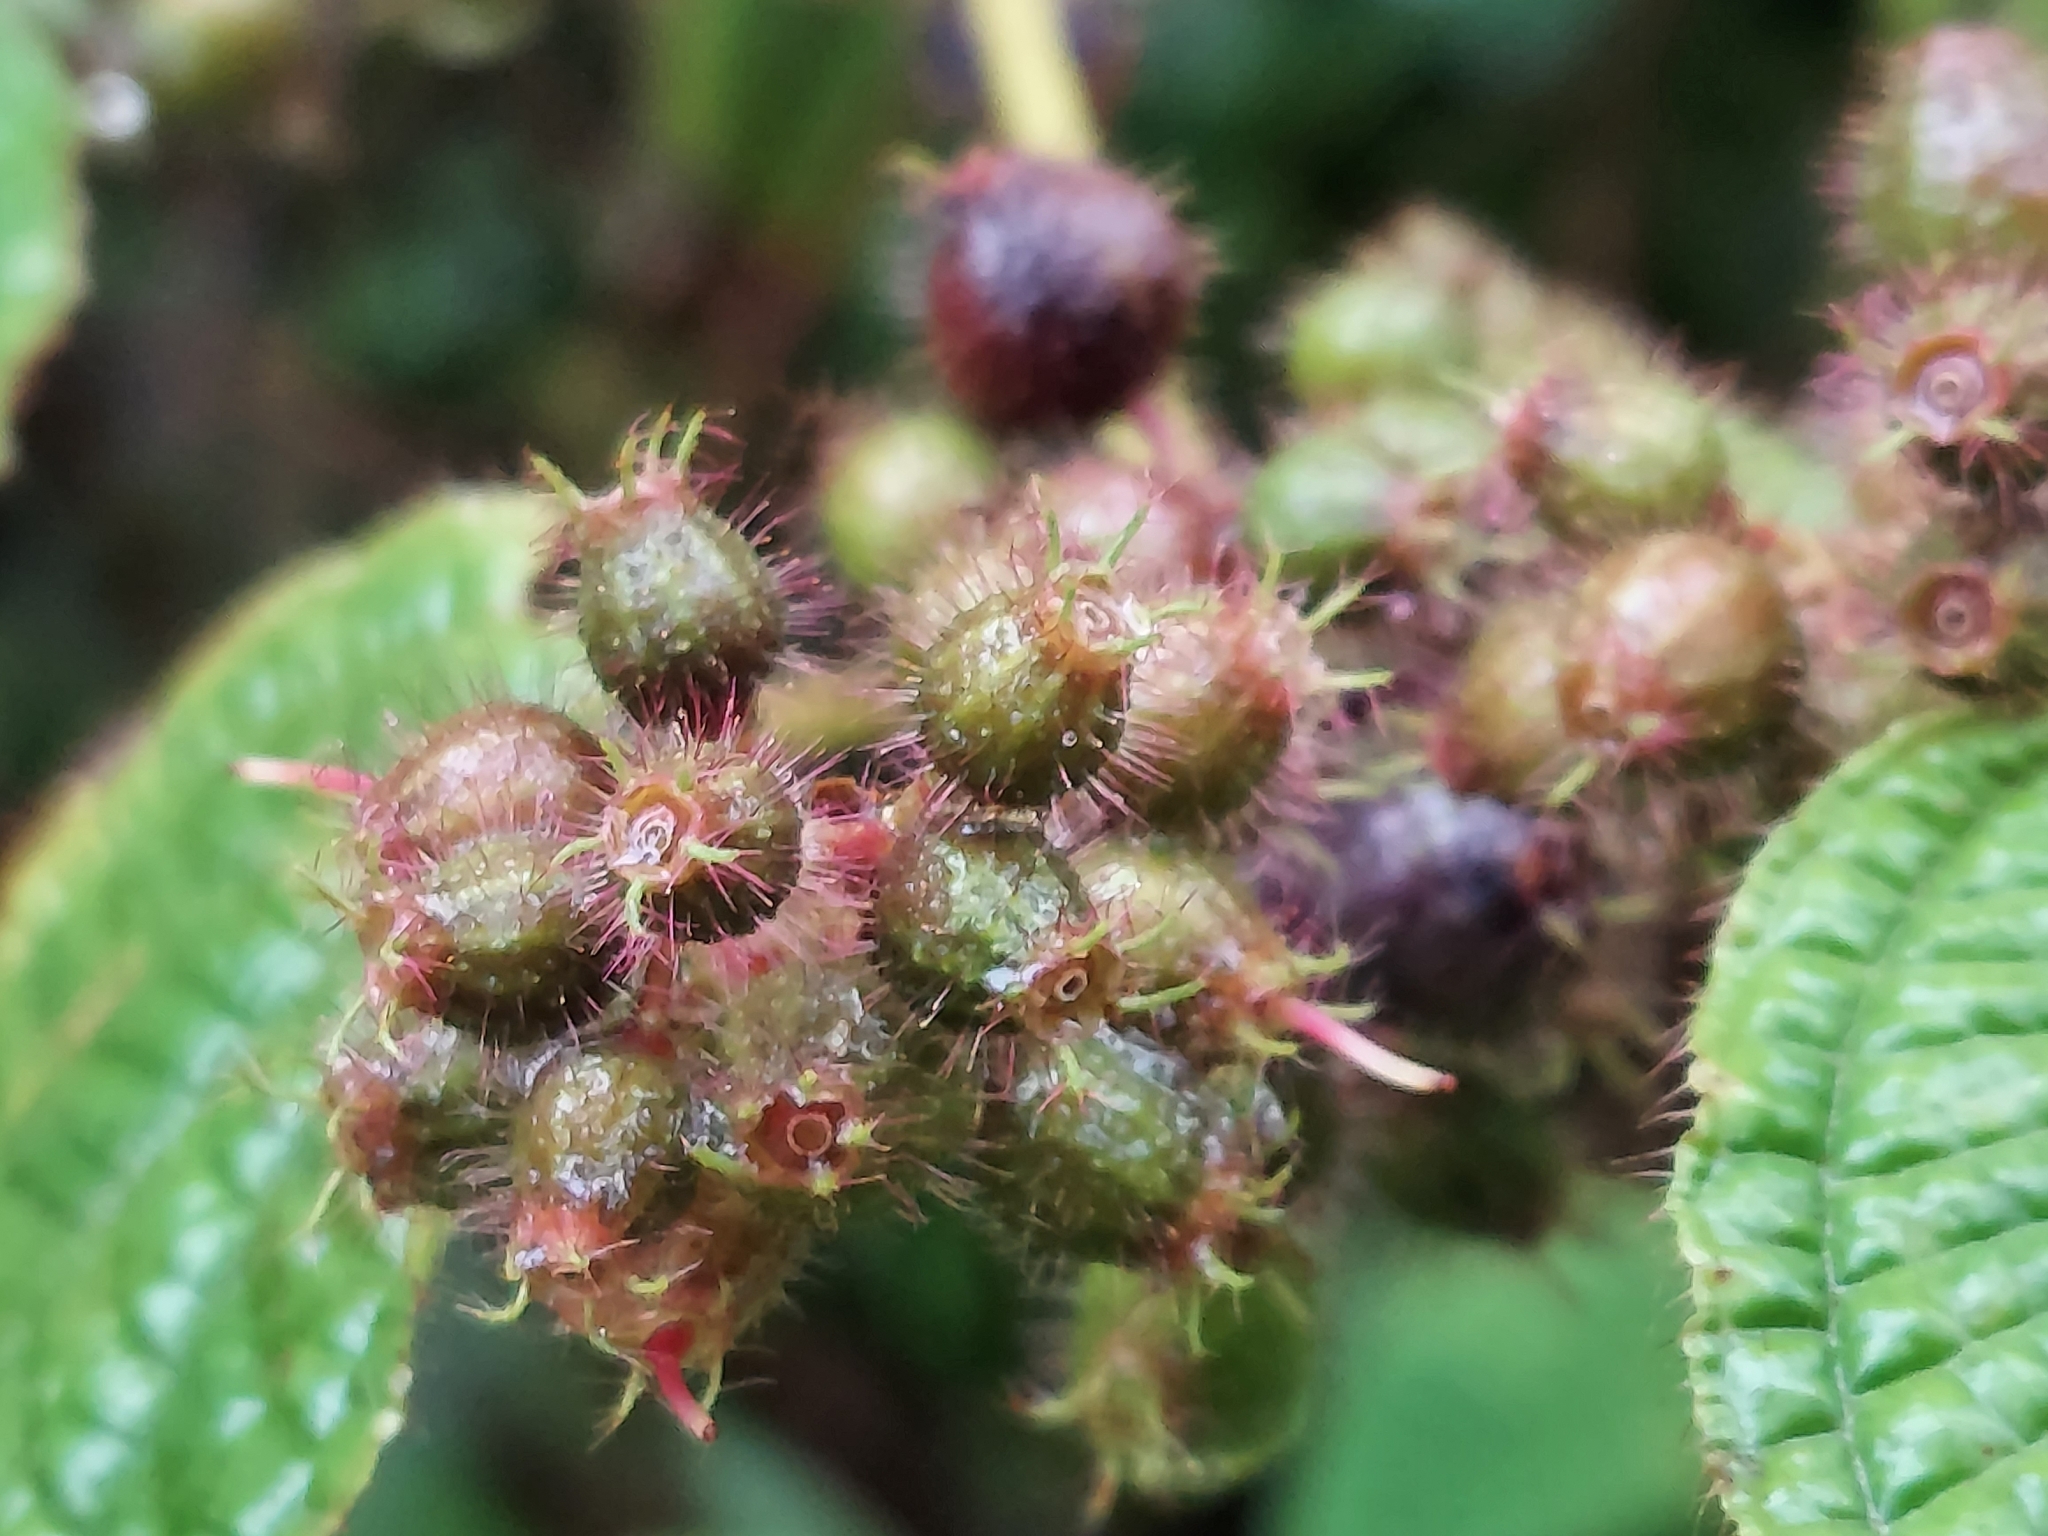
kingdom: Plantae
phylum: Tracheophyta
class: Magnoliopsida
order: Myrtales
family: Melastomataceae
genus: Miconia
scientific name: Miconia crenata
